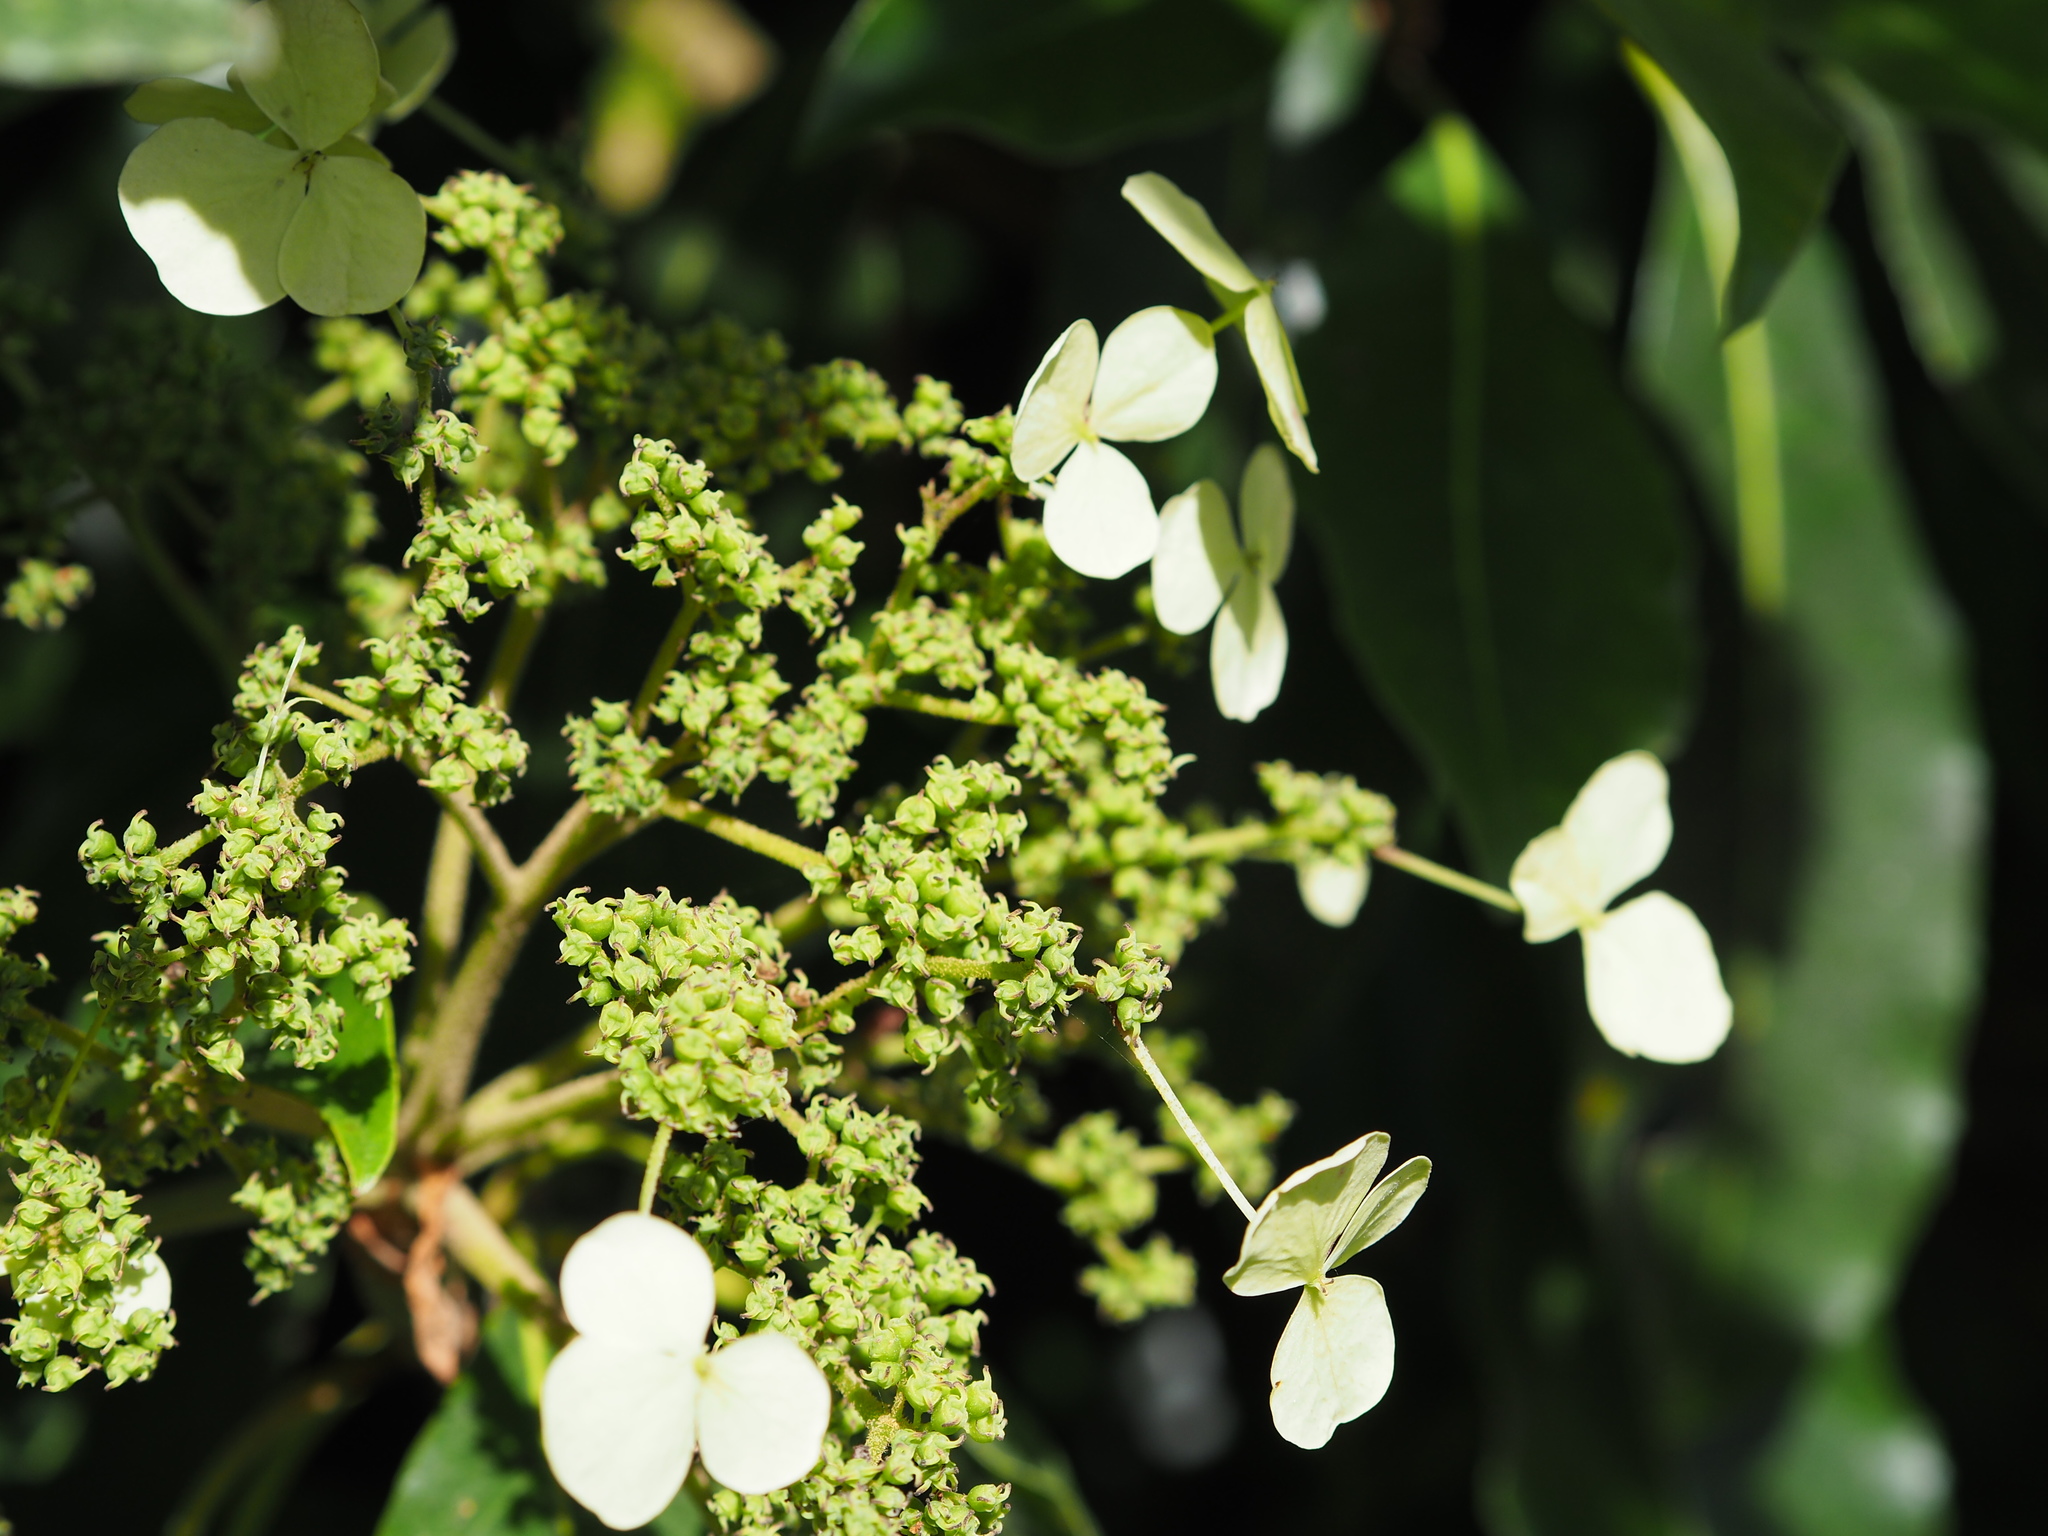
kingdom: Plantae
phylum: Tracheophyta
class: Magnoliopsida
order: Cornales
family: Hydrangeaceae
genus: Hydrangea
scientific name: Hydrangea integrifolia
